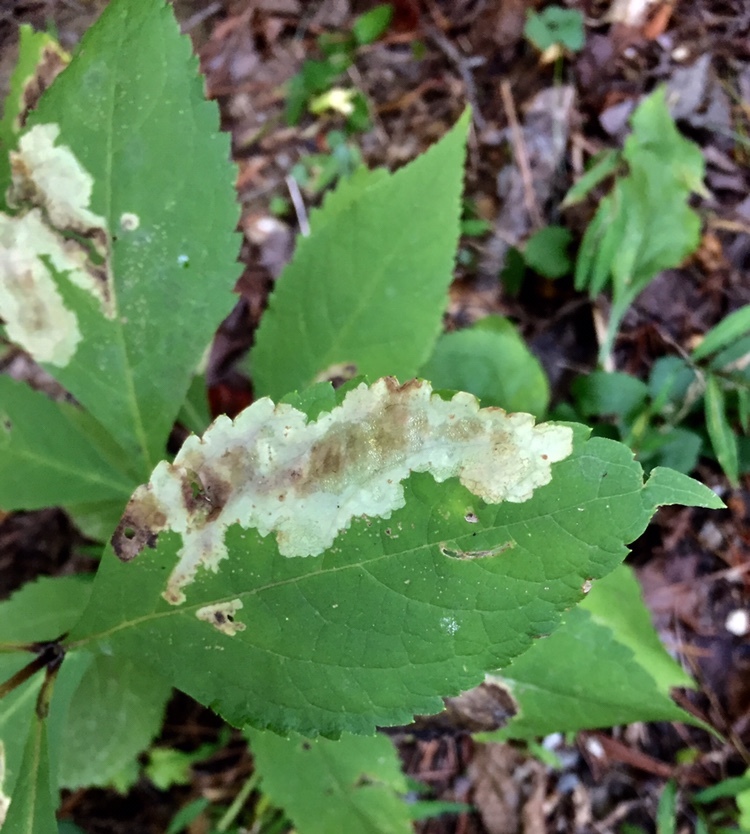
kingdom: Animalia
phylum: Arthropoda
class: Insecta
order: Diptera
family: Agromyzidae
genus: Calycomyza
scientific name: Calycomyza flavinotum
